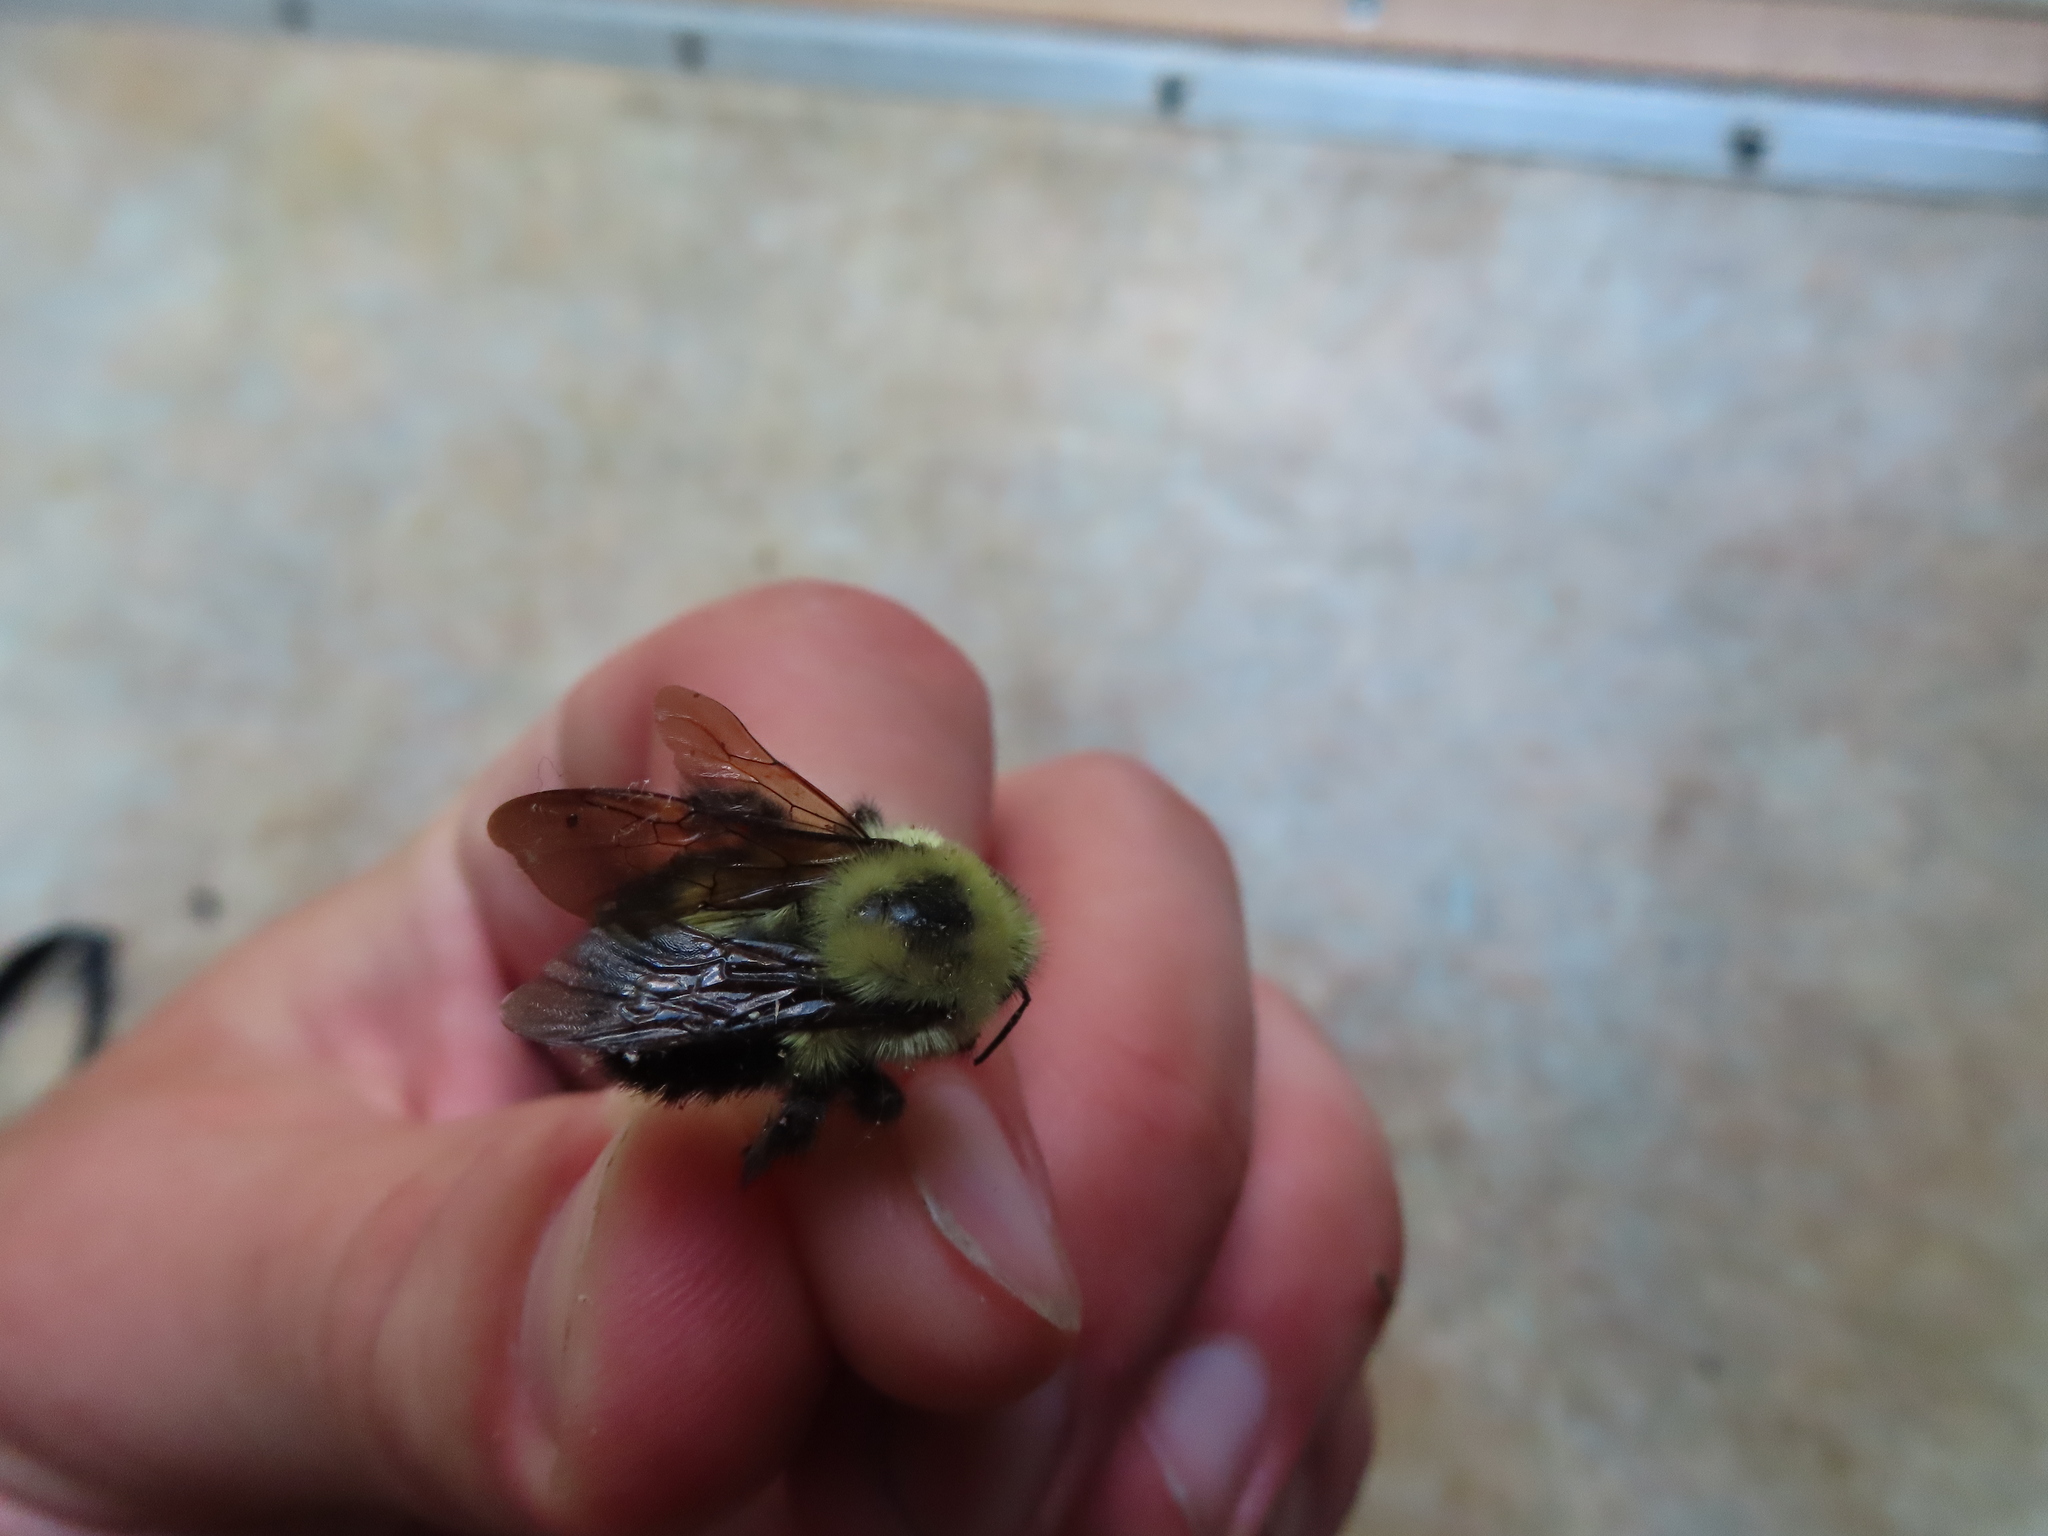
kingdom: Animalia
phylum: Arthropoda
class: Insecta
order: Hymenoptera
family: Apidae
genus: Bombus
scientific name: Bombus bimaculatus
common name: Two-spotted bumble bee
